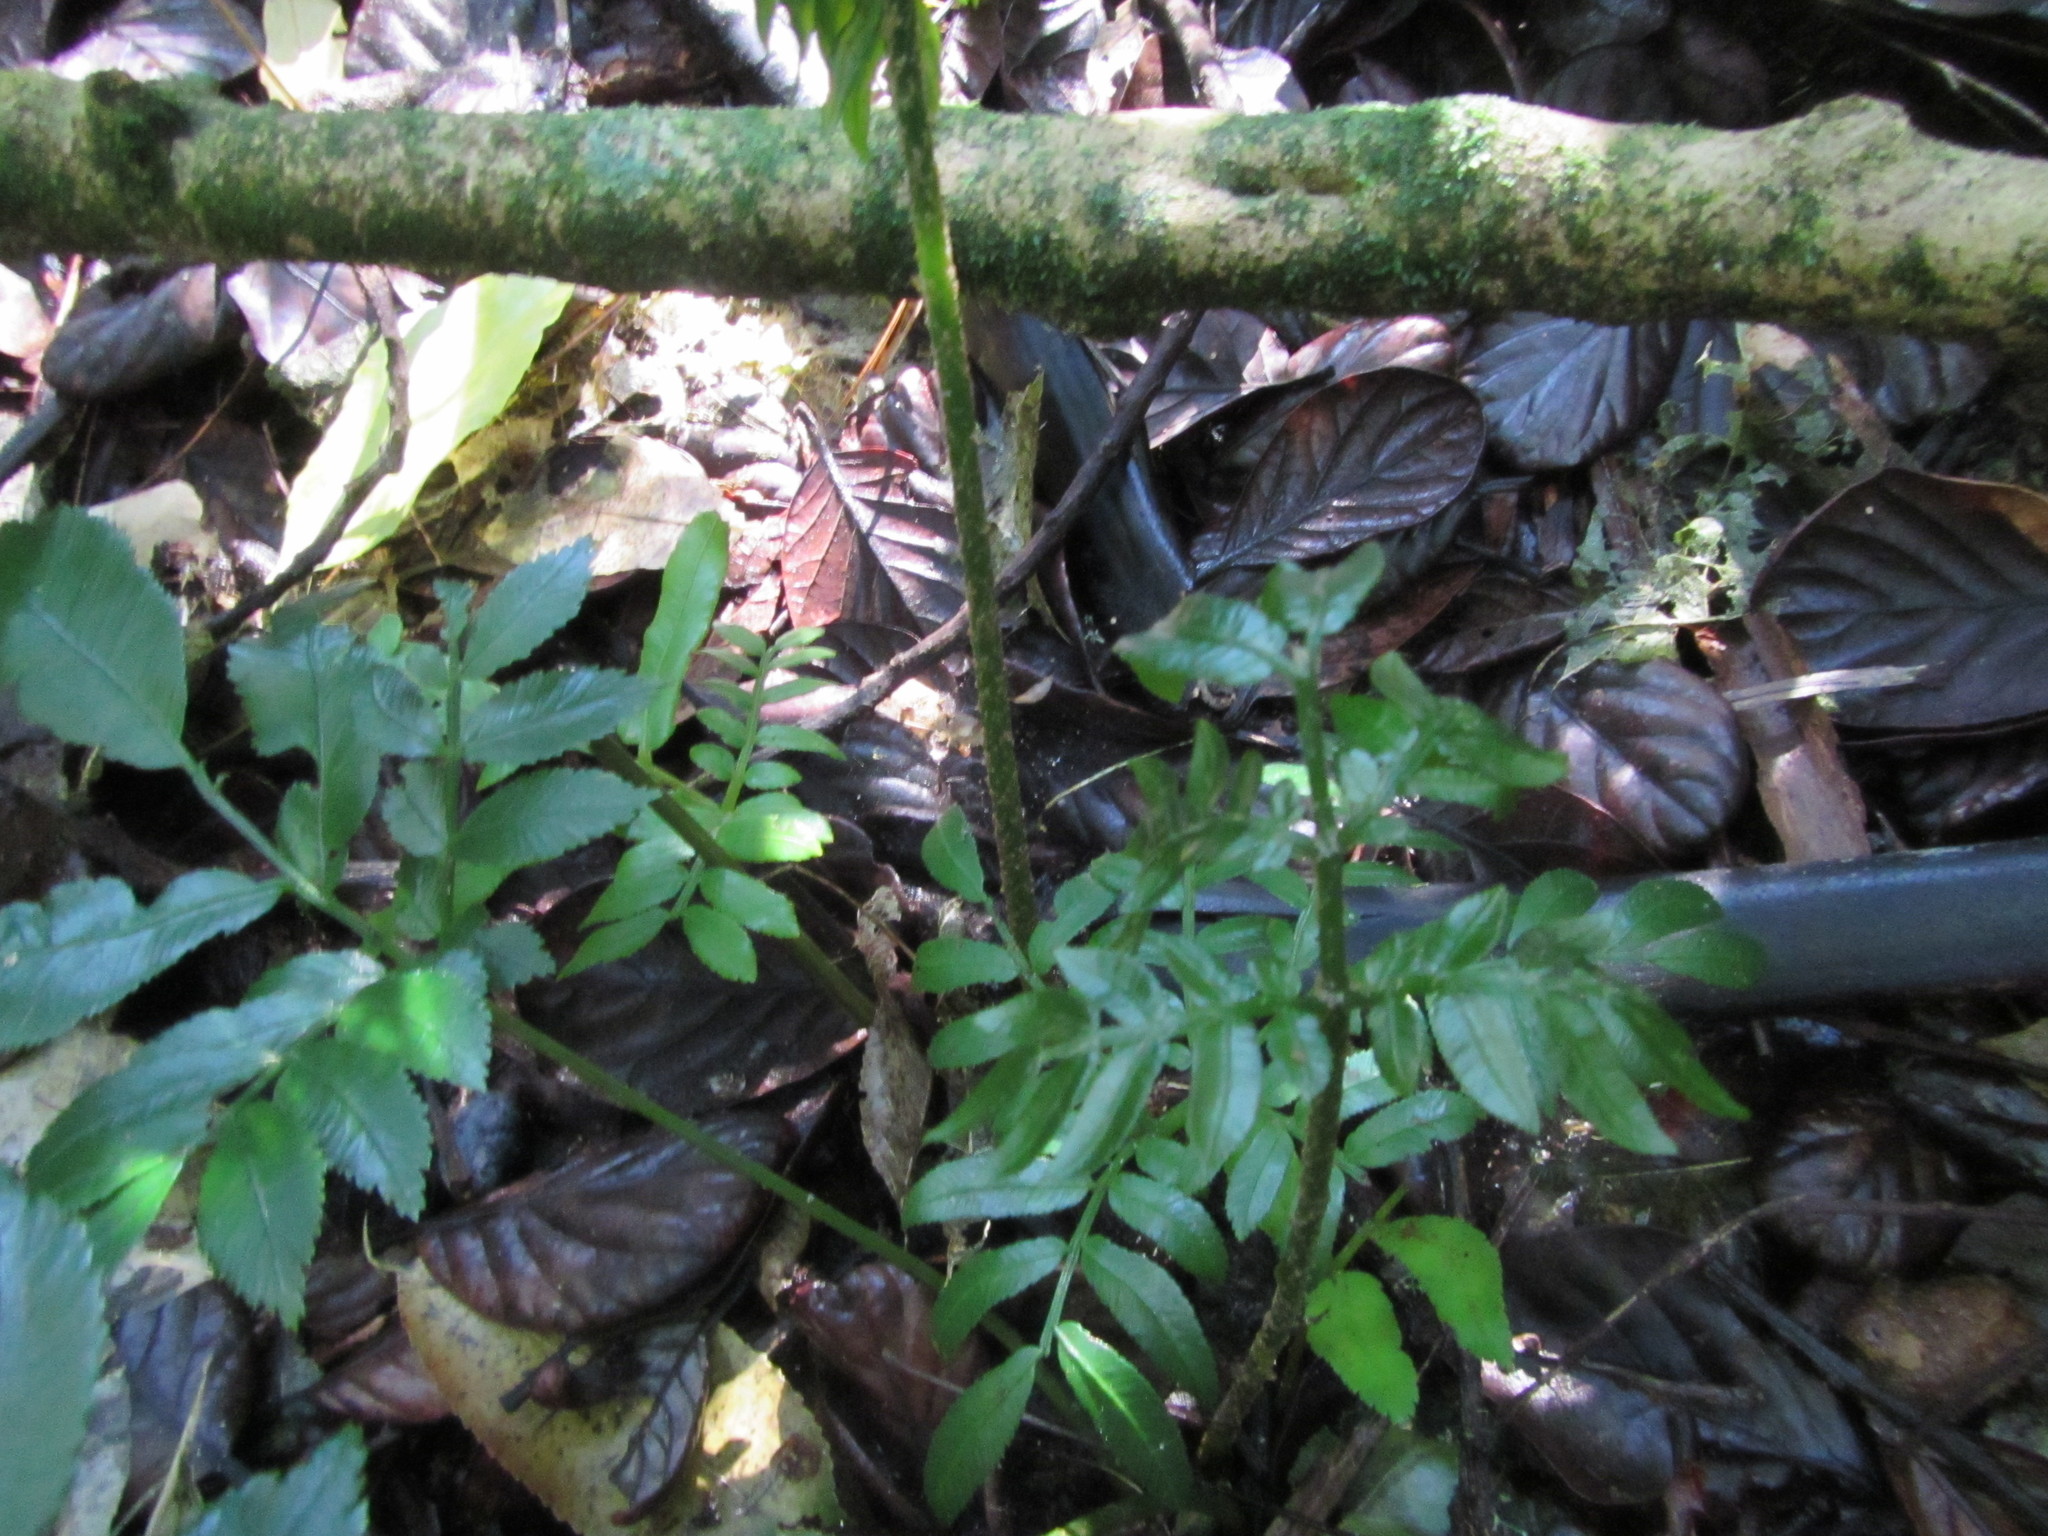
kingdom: Plantae
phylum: Tracheophyta
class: Polypodiopsida
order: Marattiales
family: Marattiaceae
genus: Ptisana
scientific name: Ptisana salicina
